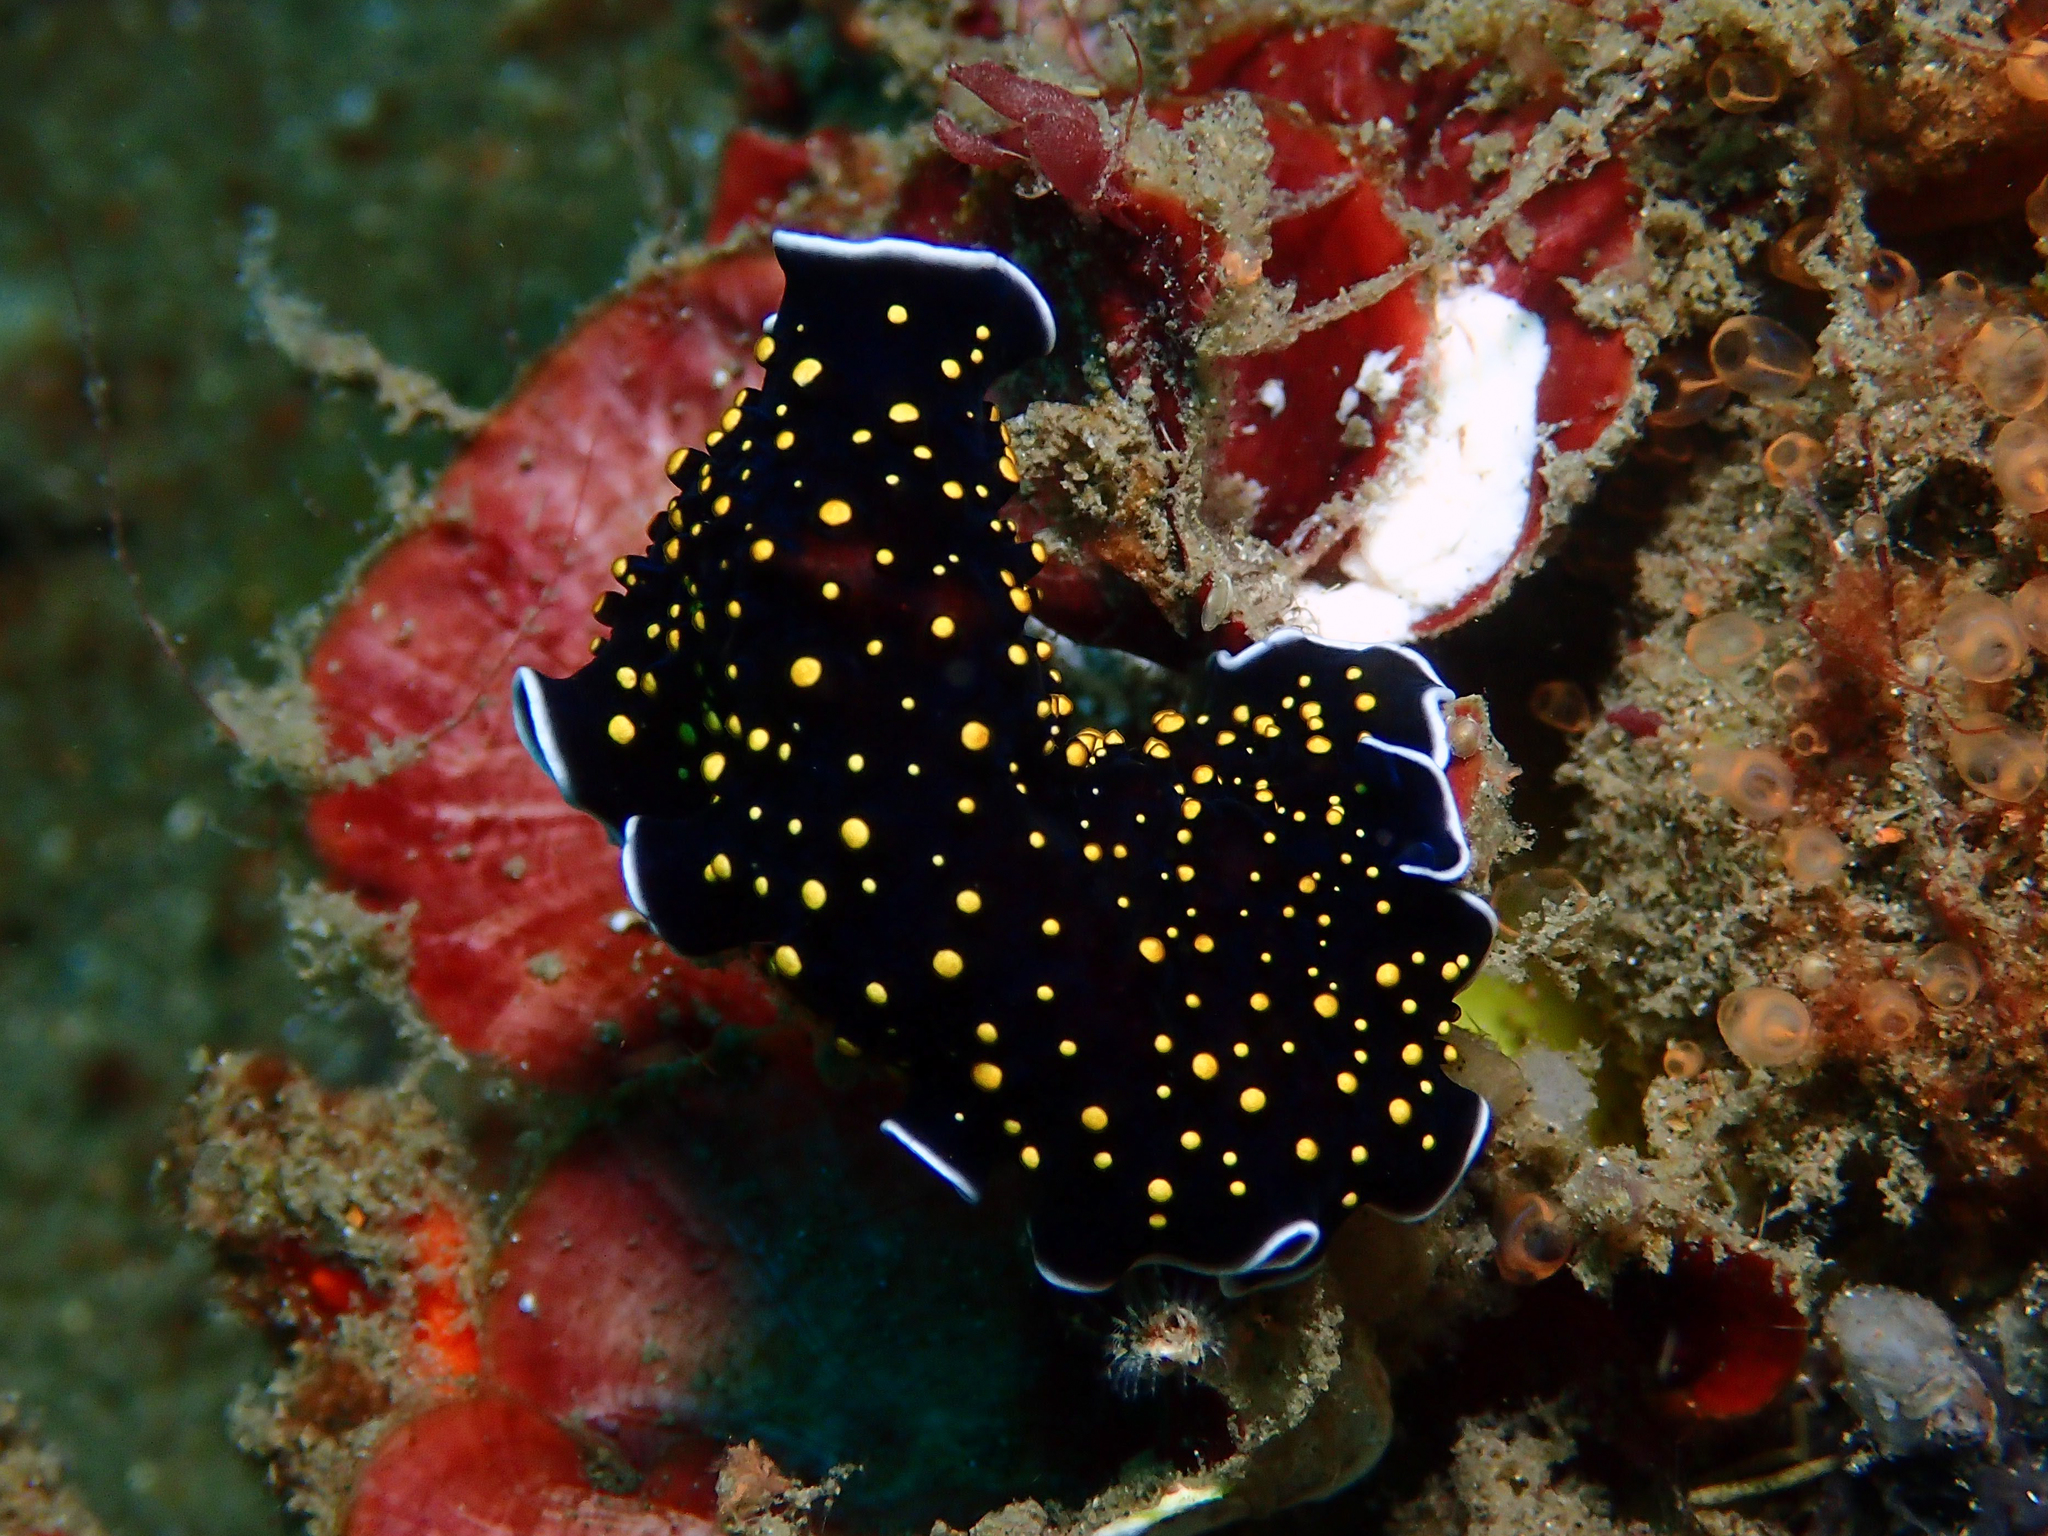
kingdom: Animalia
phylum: Platyhelminthes
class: Turbellaria
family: Pseudocerotidae
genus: Thysanozoon
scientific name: Thysanozoon nigropapillosum
